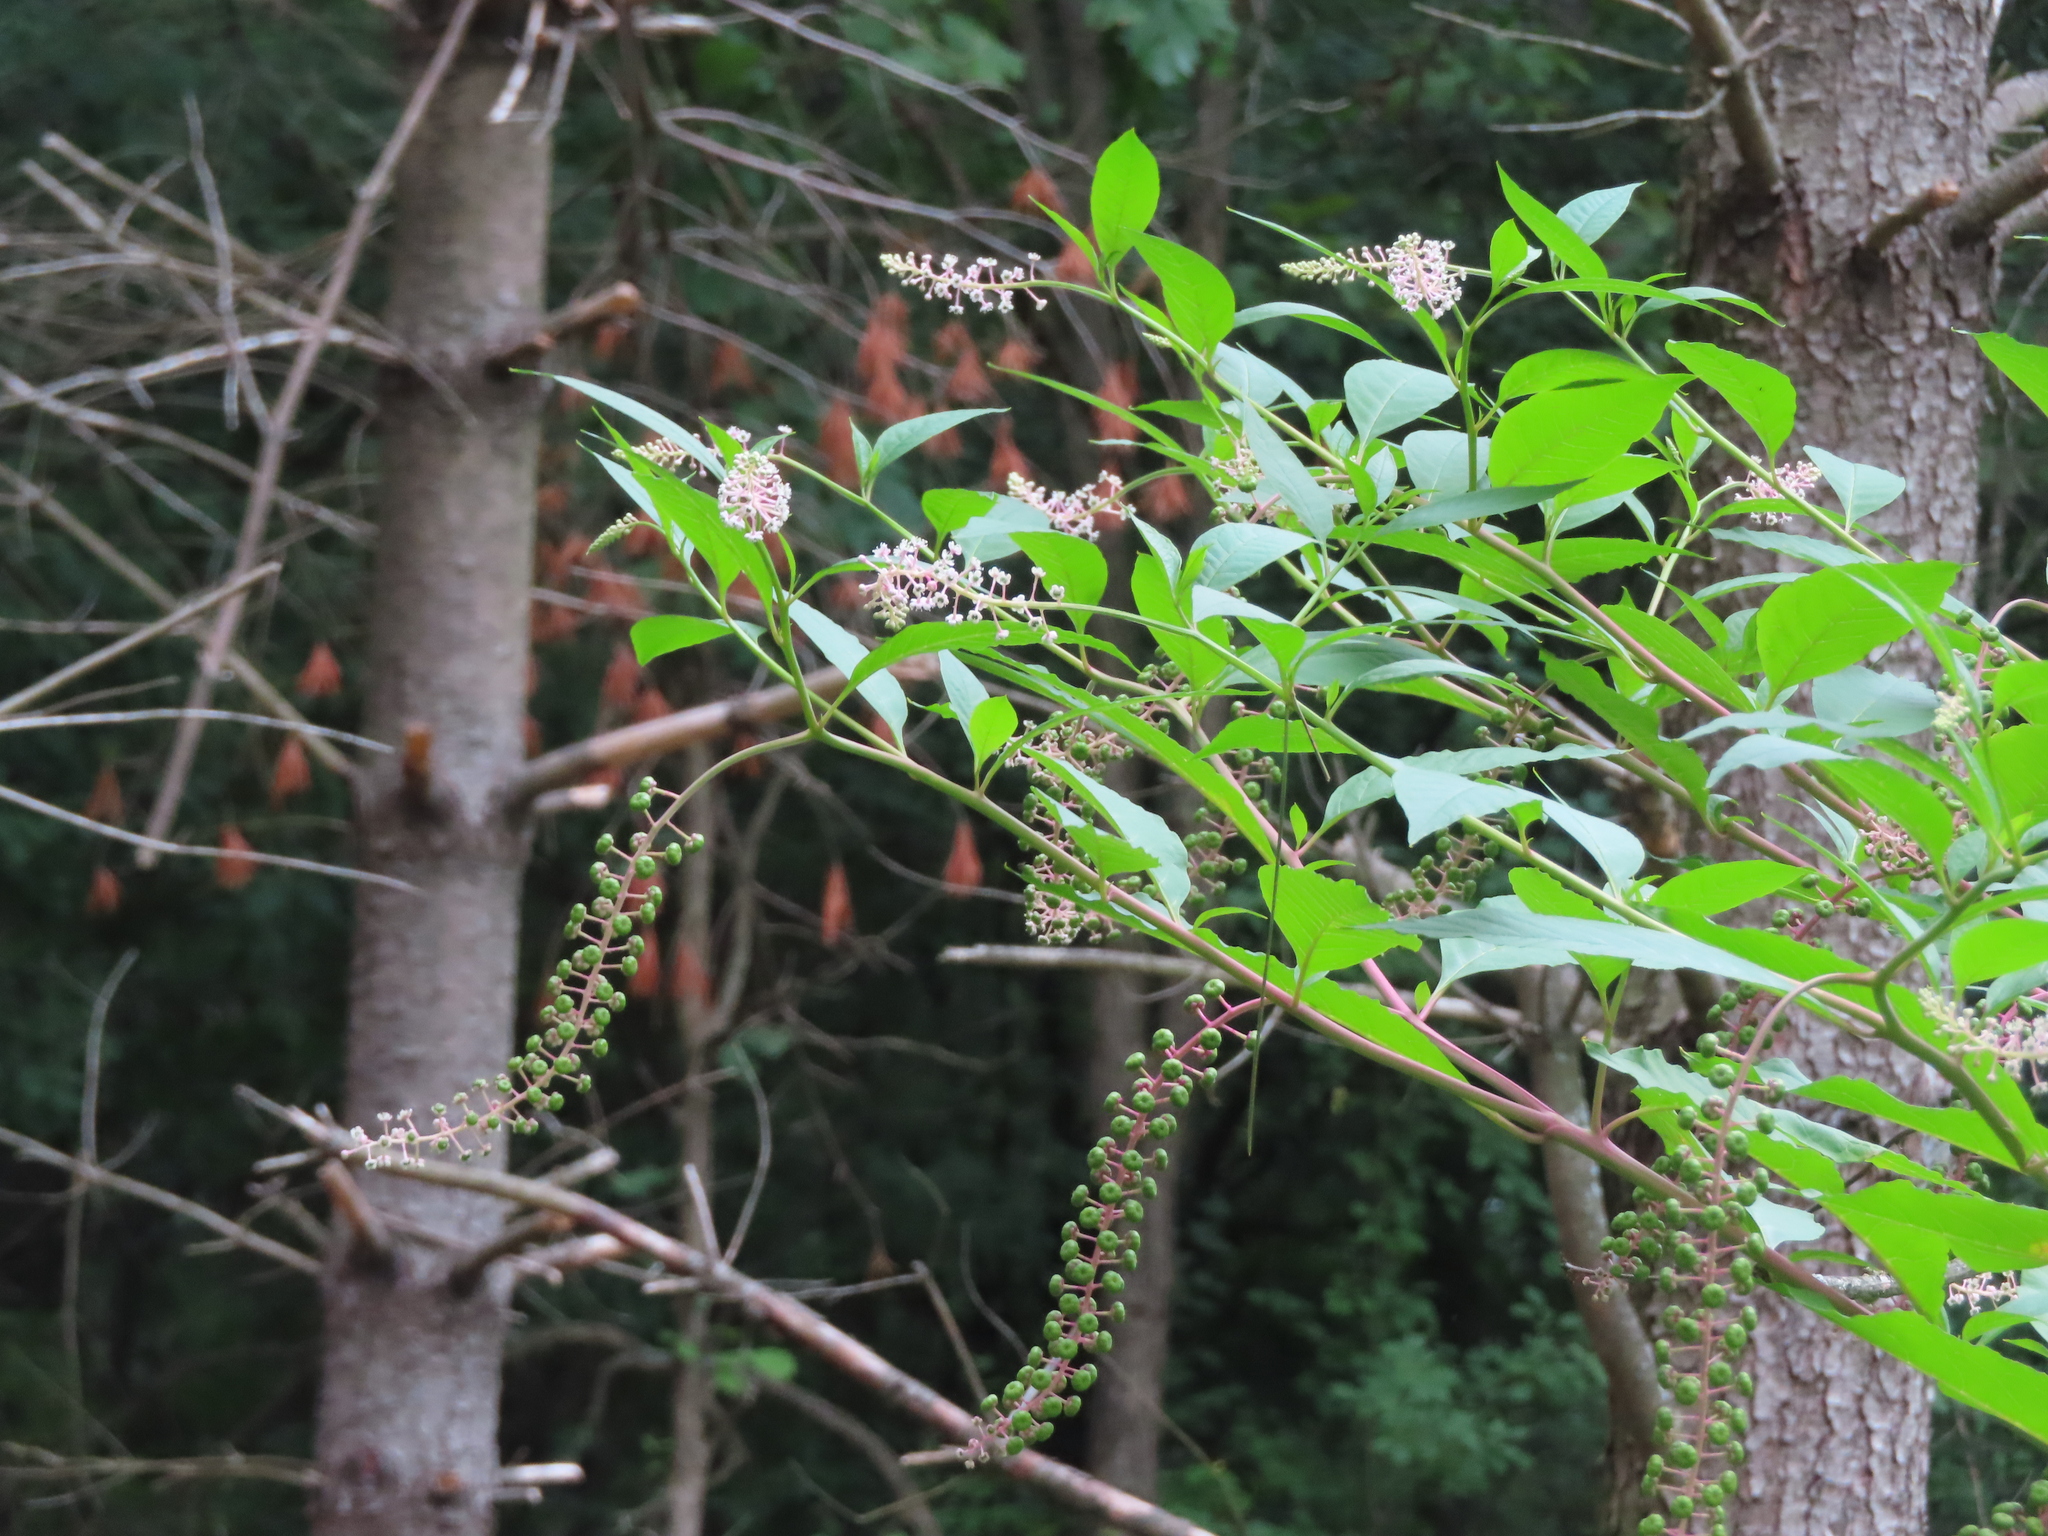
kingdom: Plantae
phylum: Tracheophyta
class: Magnoliopsida
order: Caryophyllales
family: Phytolaccaceae
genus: Phytolacca
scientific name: Phytolacca americana
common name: American pokeweed
